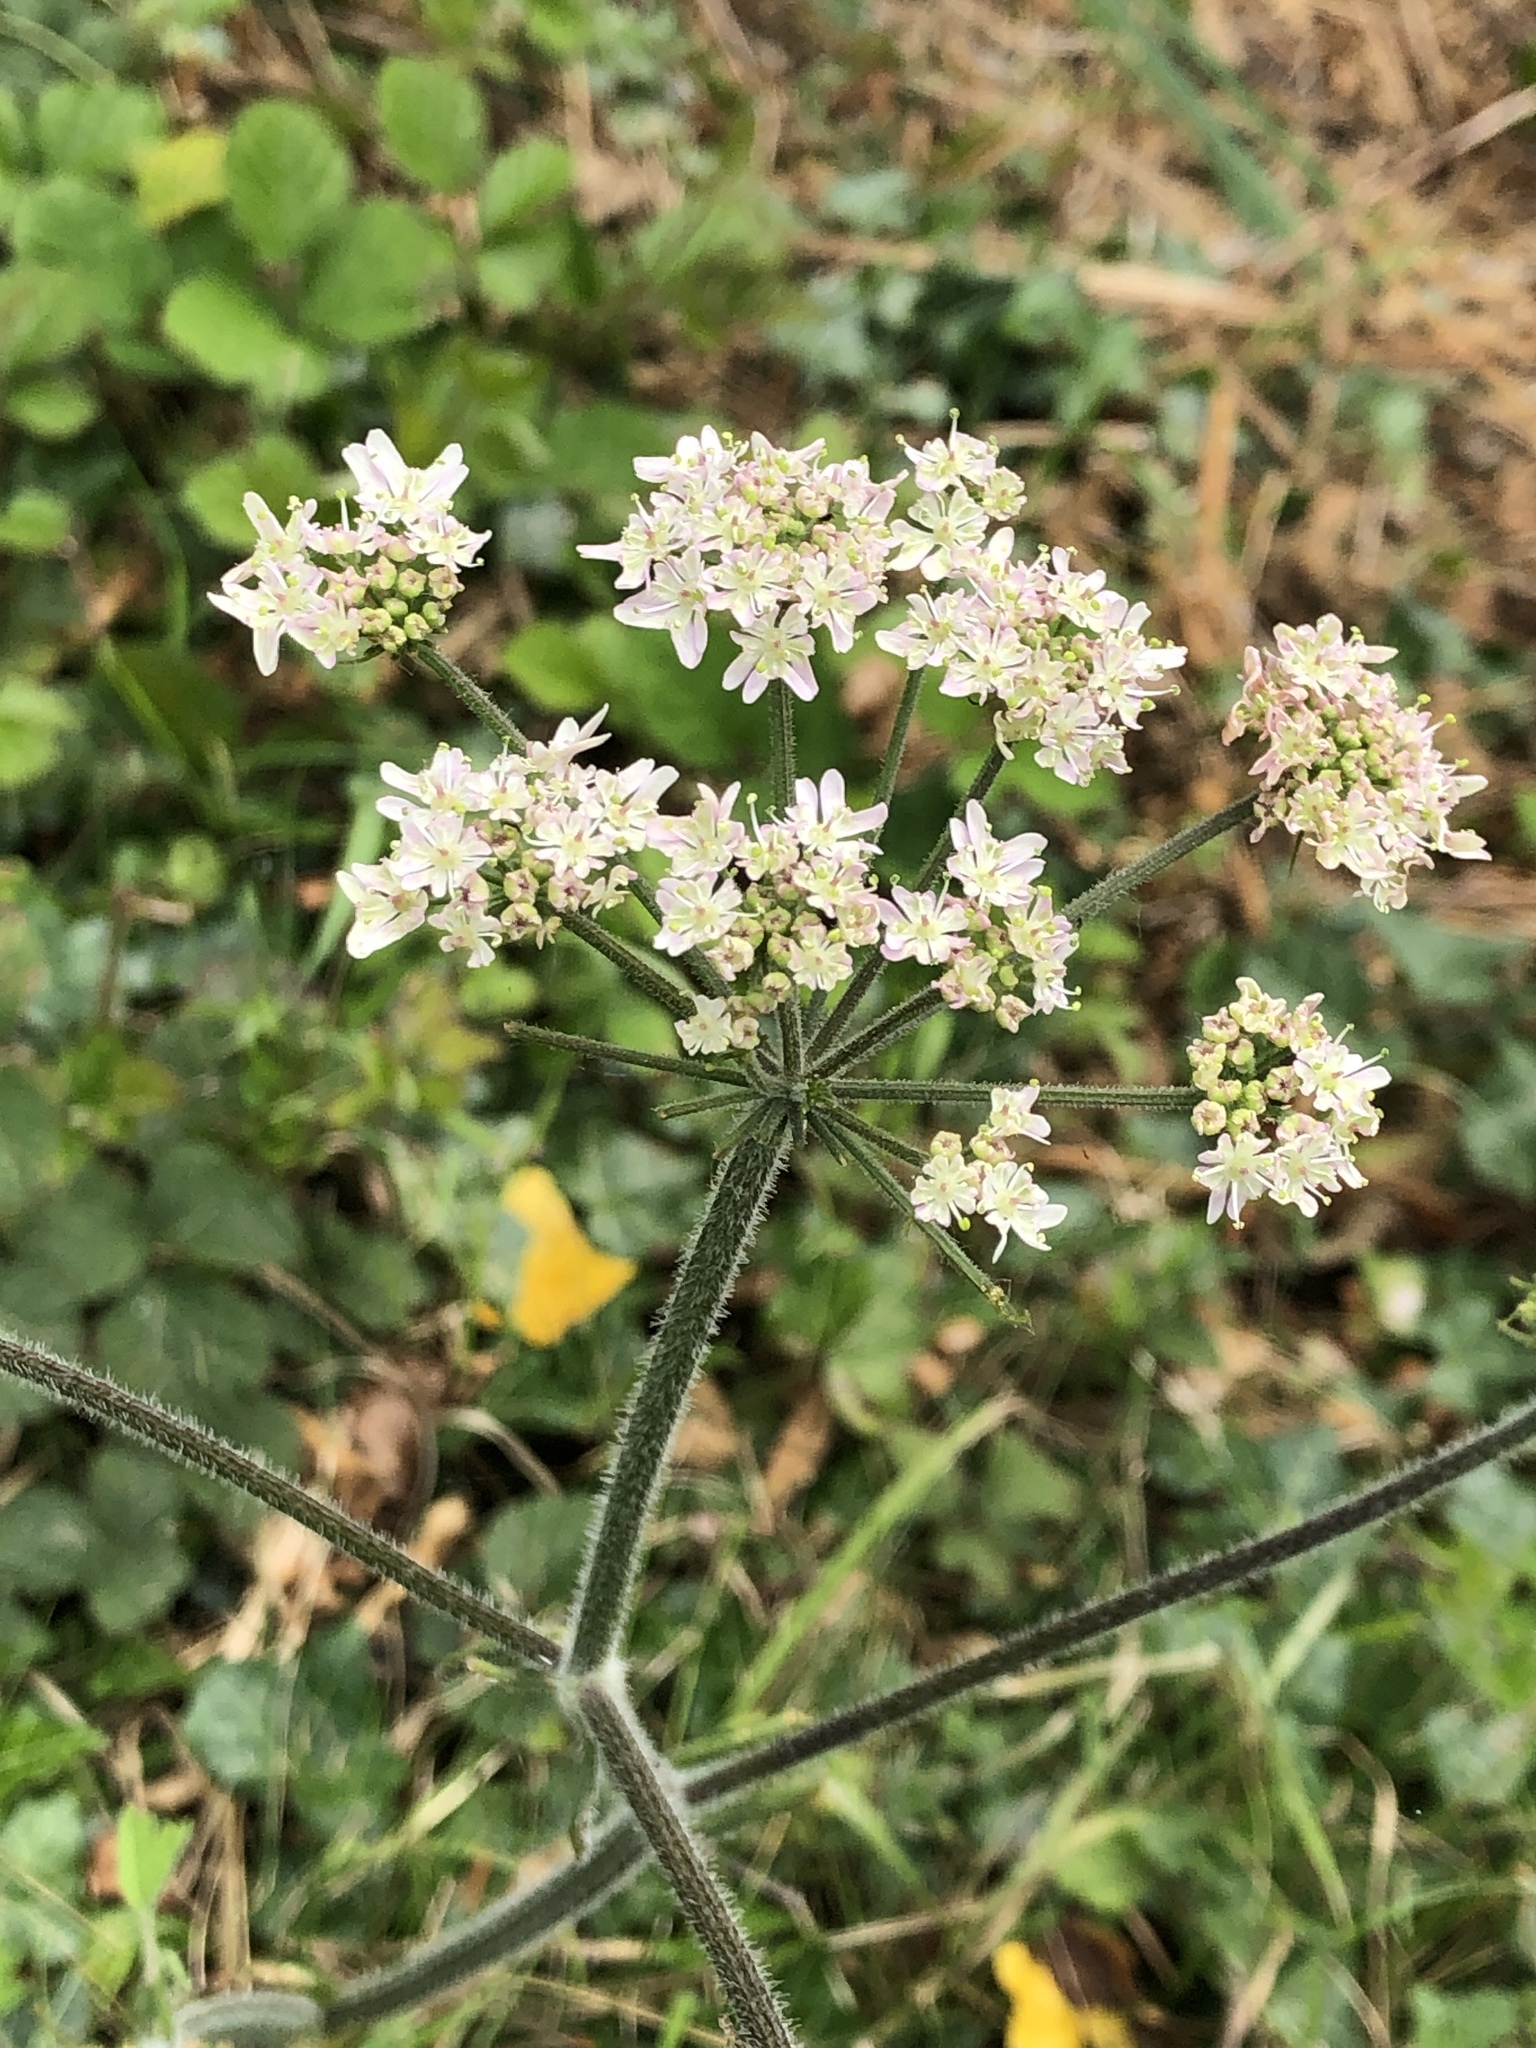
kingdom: Plantae
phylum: Tracheophyta
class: Magnoliopsida
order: Apiales
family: Apiaceae
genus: Heracleum
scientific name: Heracleum sphondylium
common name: Hogweed
